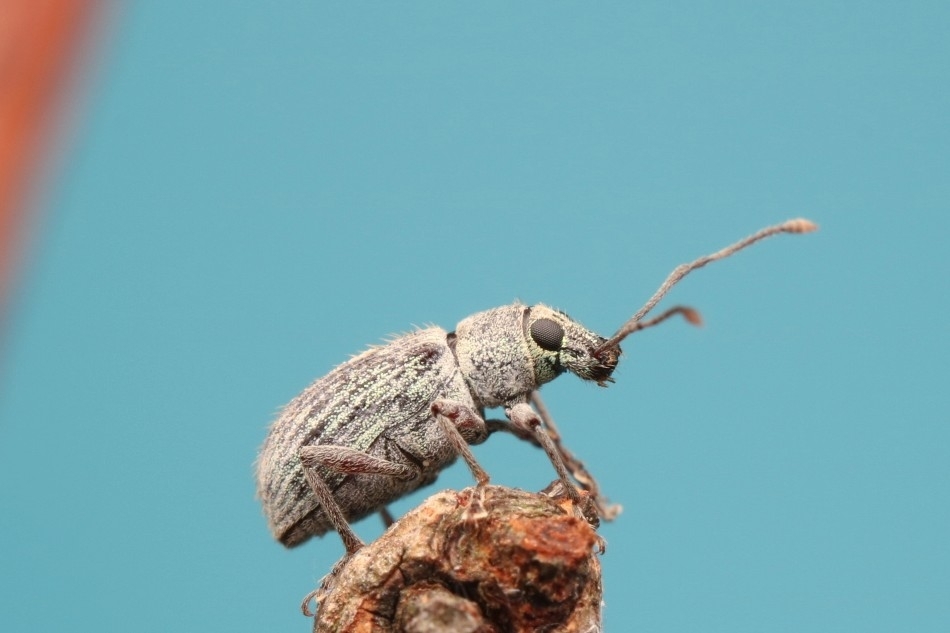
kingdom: Animalia
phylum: Arthropoda
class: Insecta
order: Coleoptera
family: Curculionidae
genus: Cyrtepistomus
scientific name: Cyrtepistomus castaneus
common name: Weevil
